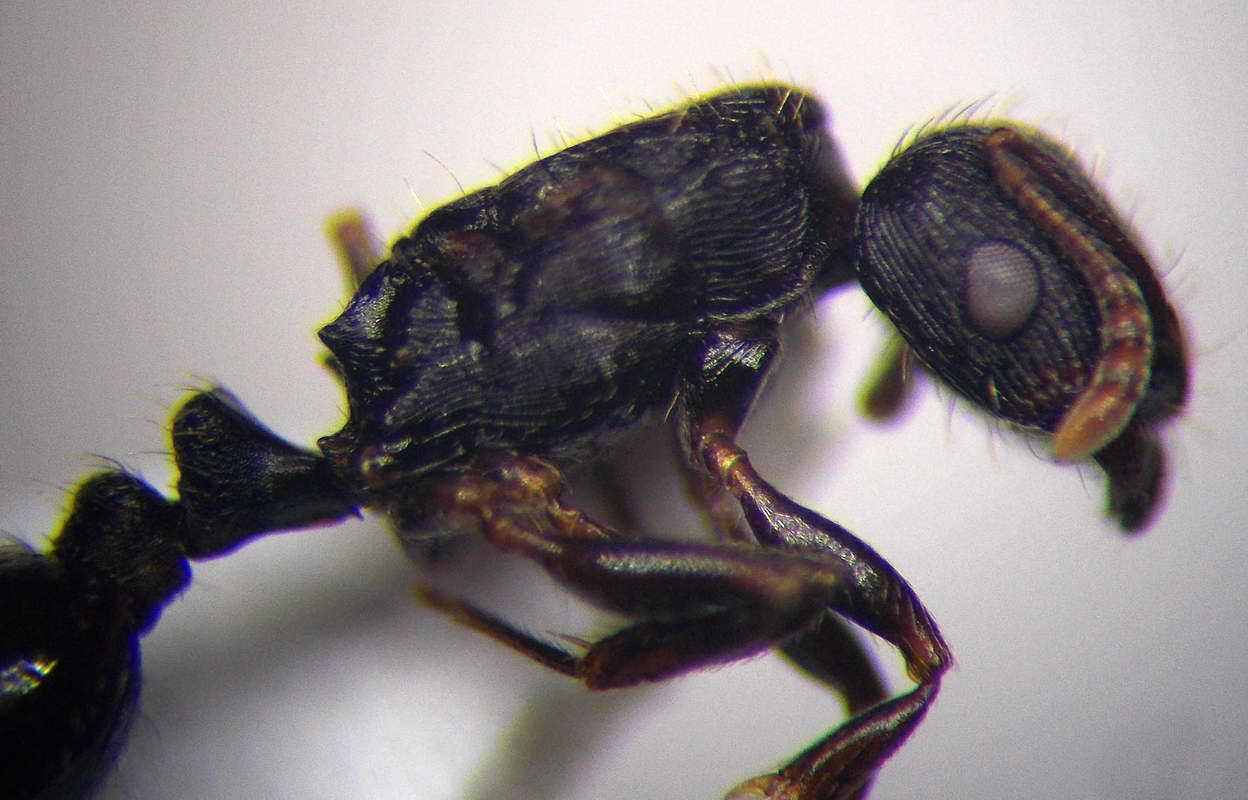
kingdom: Animalia
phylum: Arthropoda
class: Insecta
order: Hymenoptera
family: Formicidae
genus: Tetramorium
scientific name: Tetramorium chefketi
